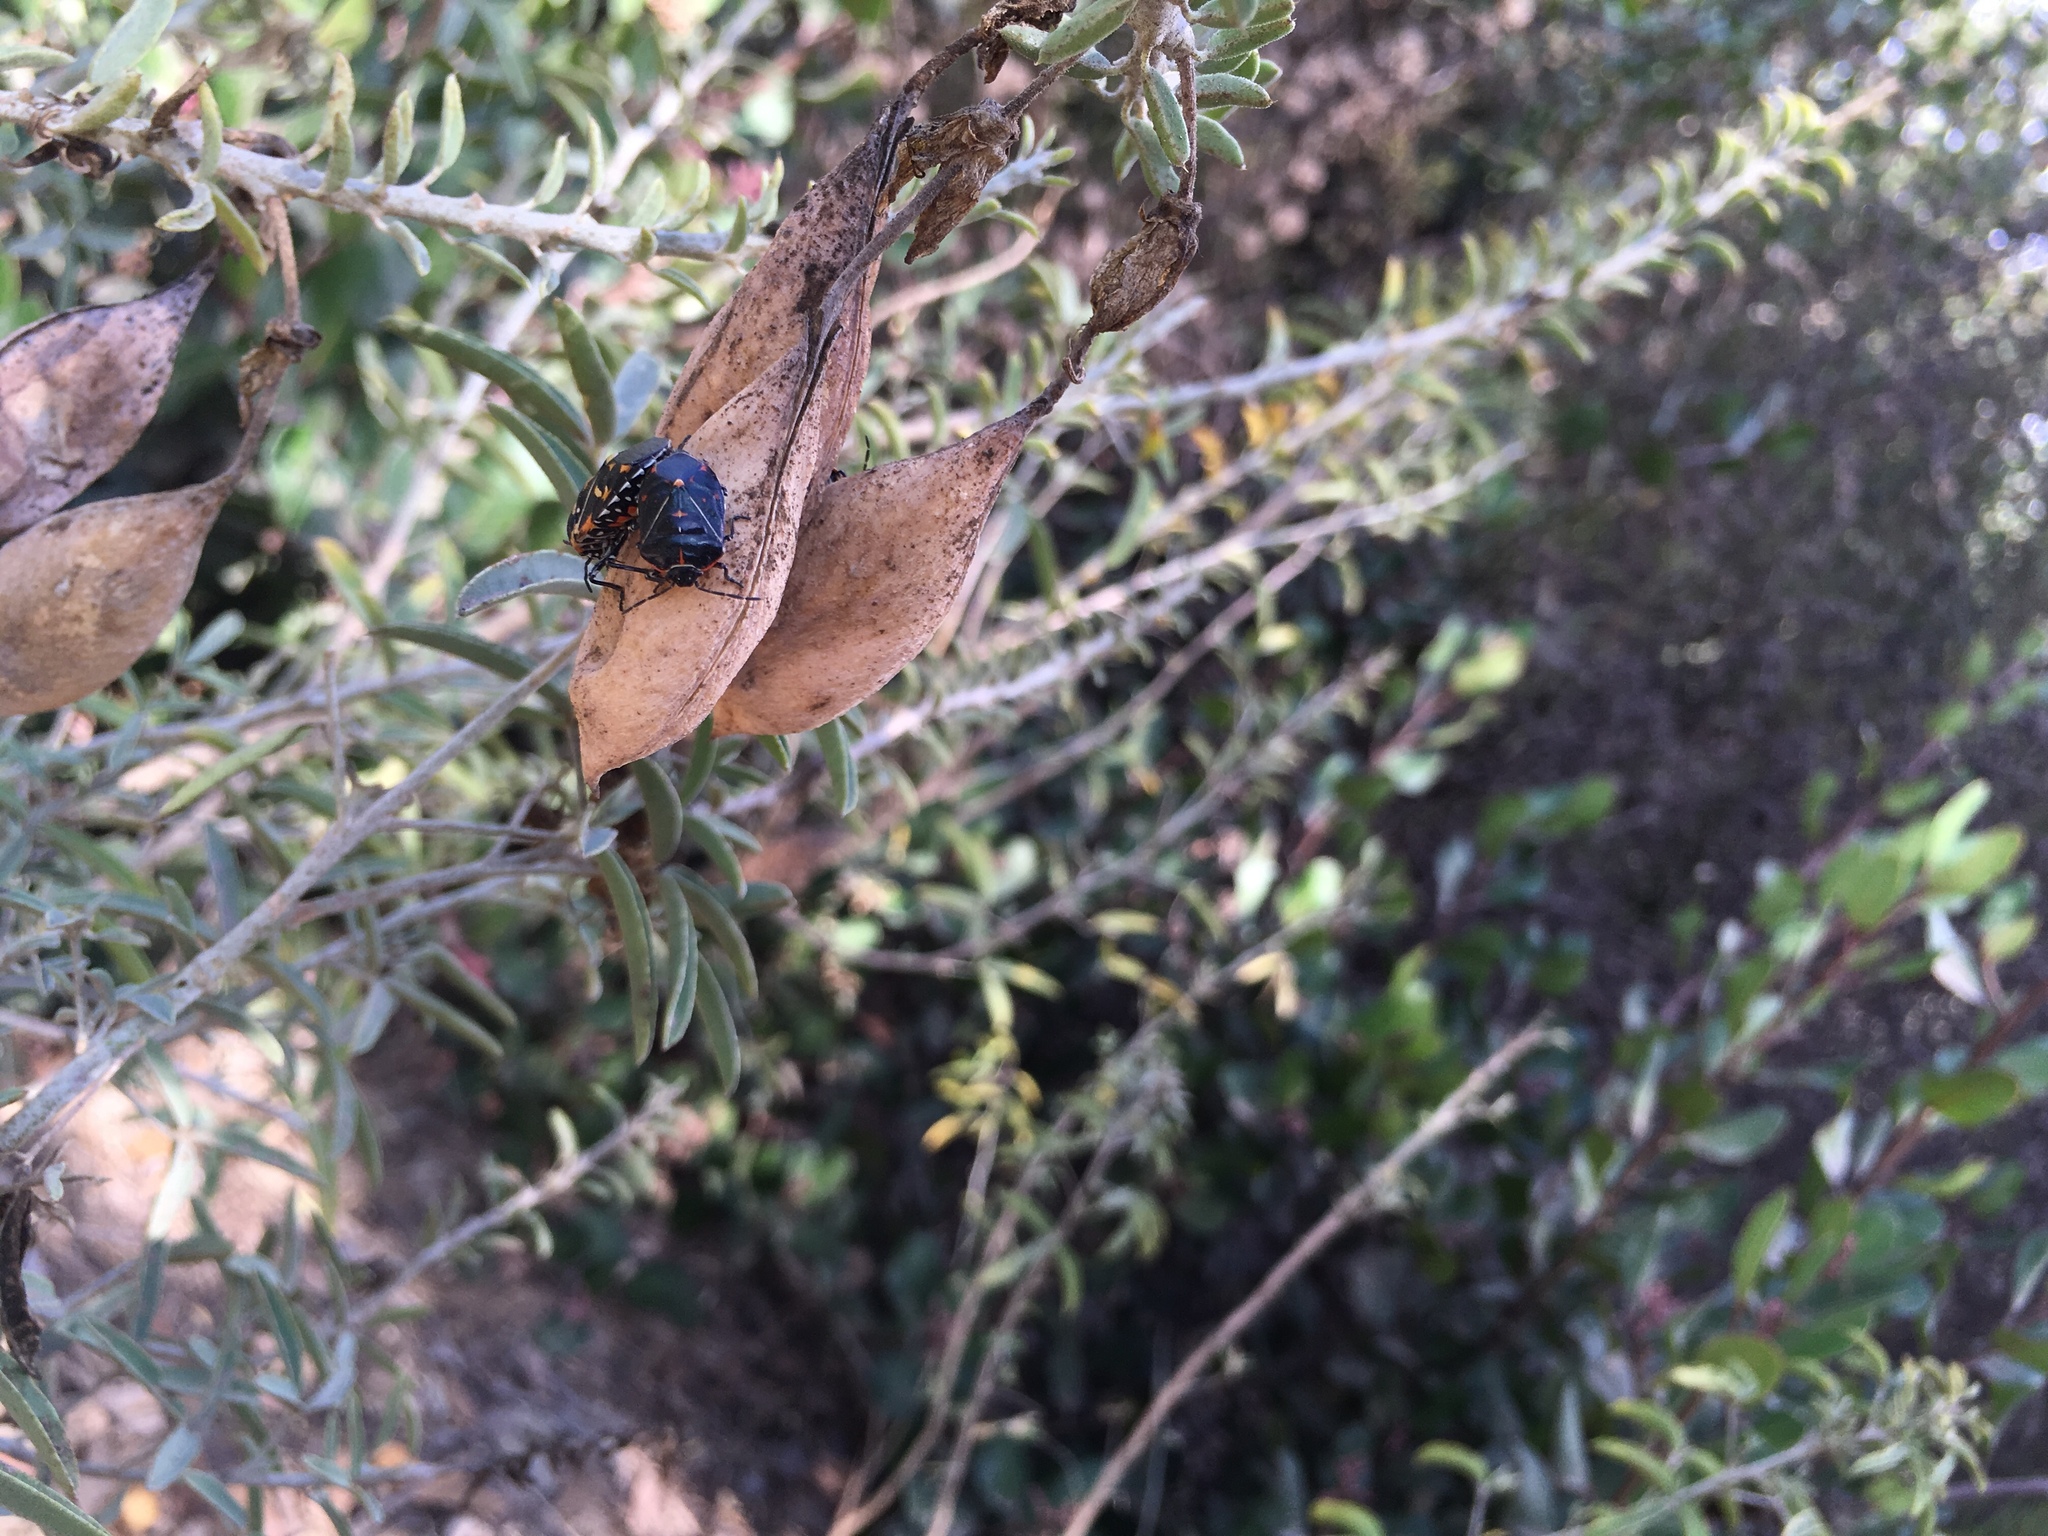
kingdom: Animalia
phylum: Arthropoda
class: Insecta
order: Hemiptera
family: Pentatomidae
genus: Murgantia
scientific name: Murgantia histrionica
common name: Harlequin bug
